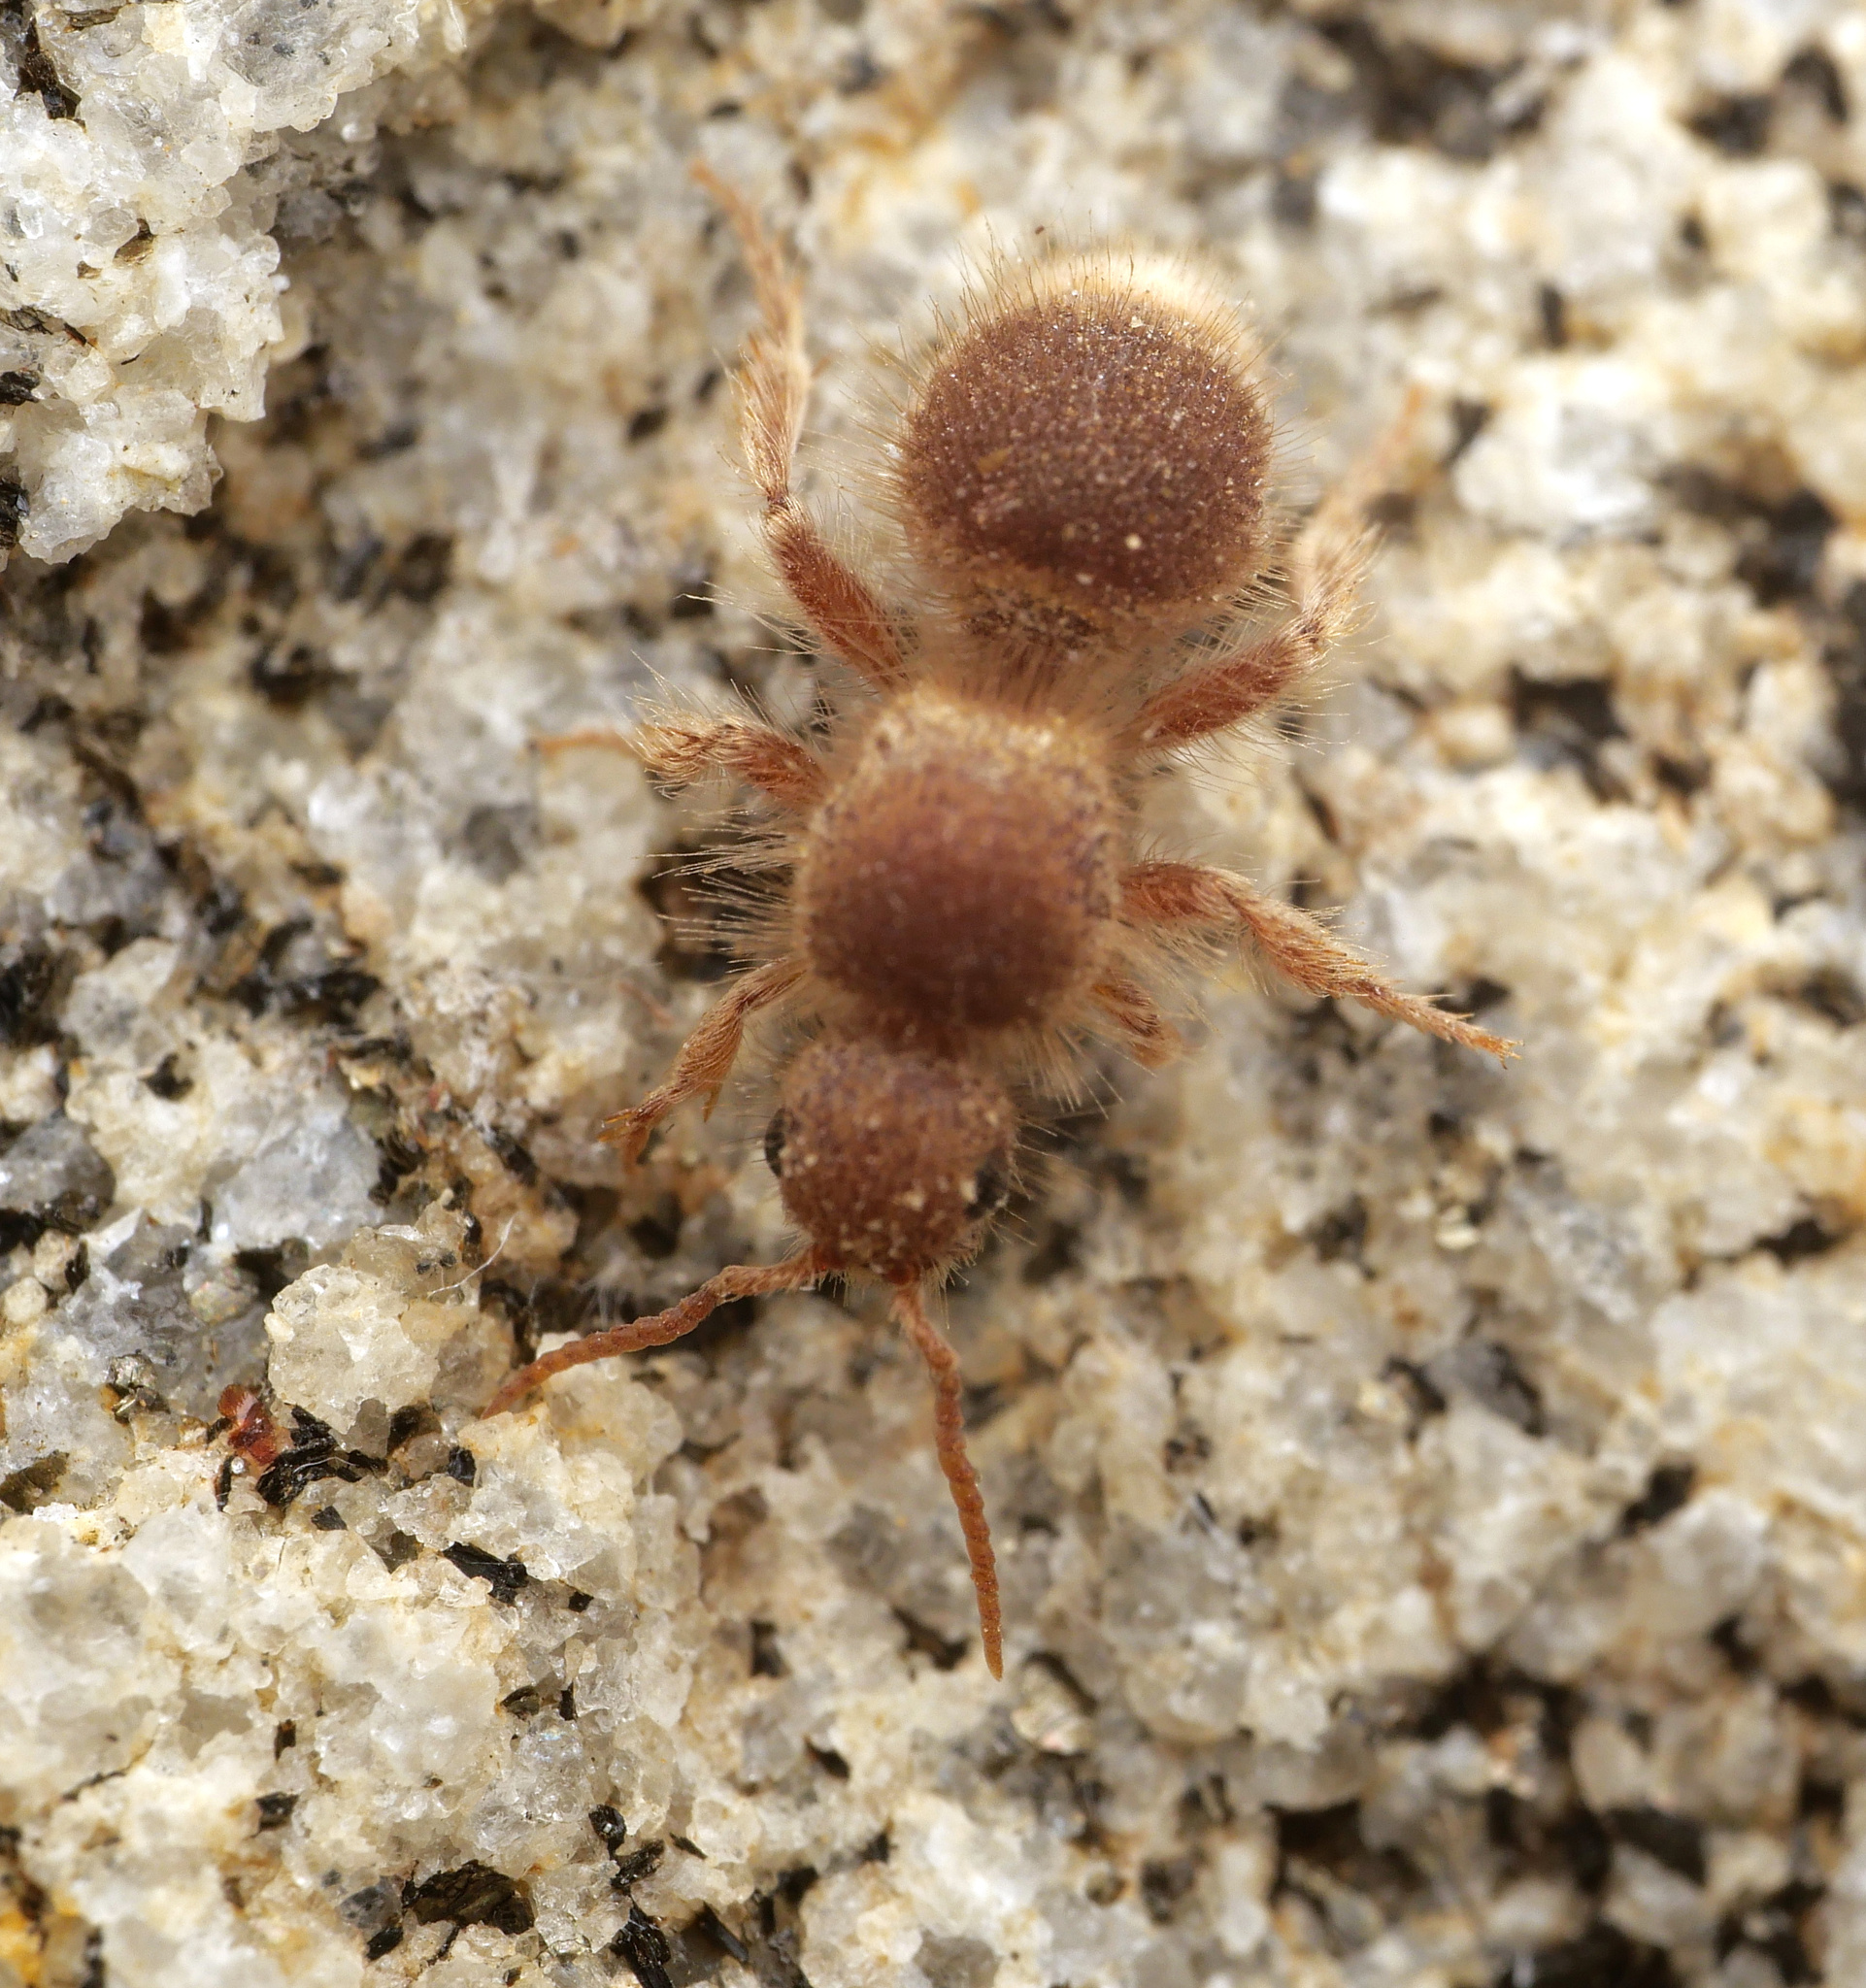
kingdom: Animalia
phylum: Arthropoda
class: Insecta
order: Hymenoptera
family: Mutillidae
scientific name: Mutillidae
